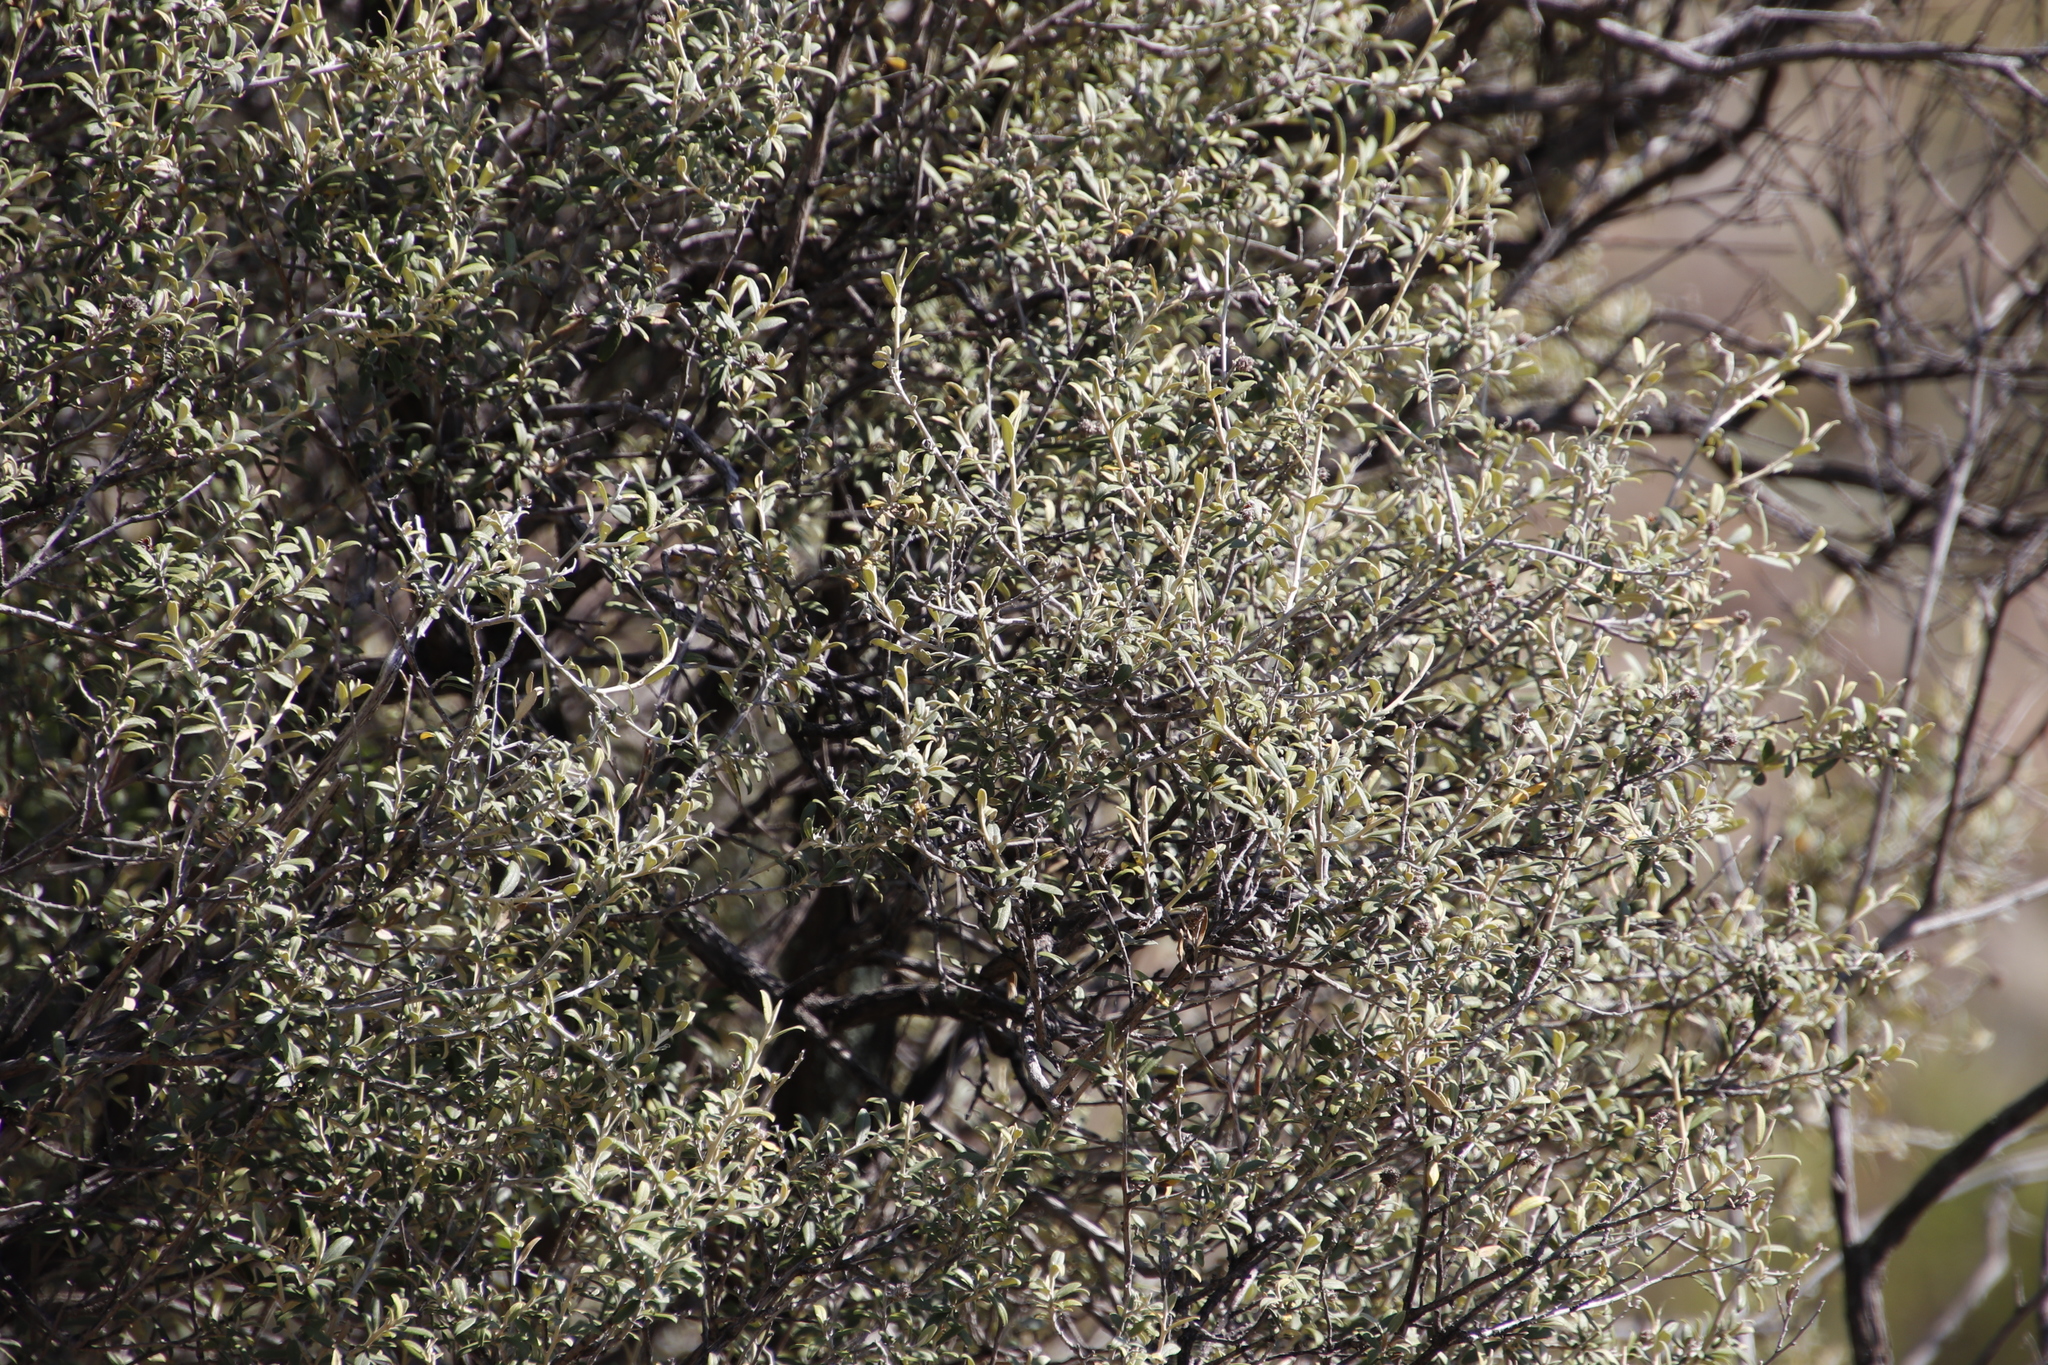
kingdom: Plantae
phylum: Tracheophyta
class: Magnoliopsida
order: Asterales
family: Asteraceae
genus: Tarchonanthus
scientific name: Tarchonanthus minor
